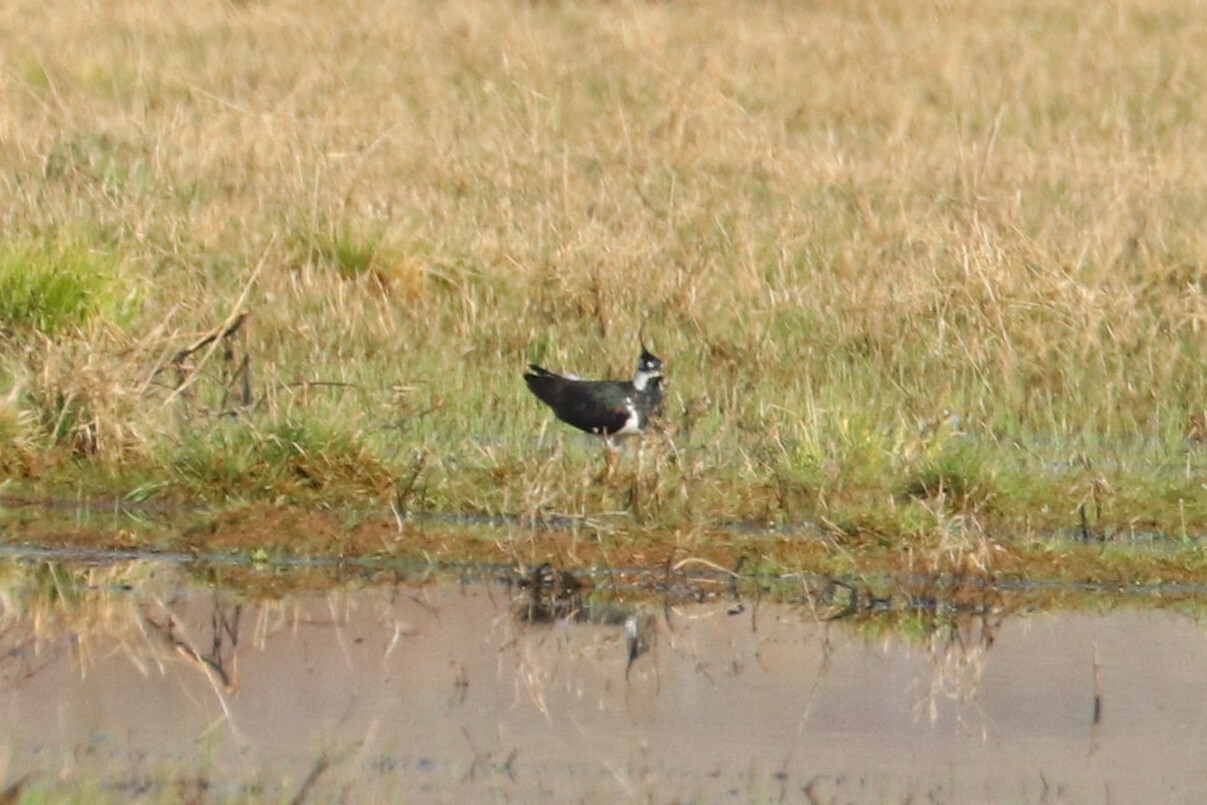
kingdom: Animalia
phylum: Chordata
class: Aves
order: Charadriiformes
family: Charadriidae
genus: Vanellus
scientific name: Vanellus vanellus
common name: Northern lapwing
